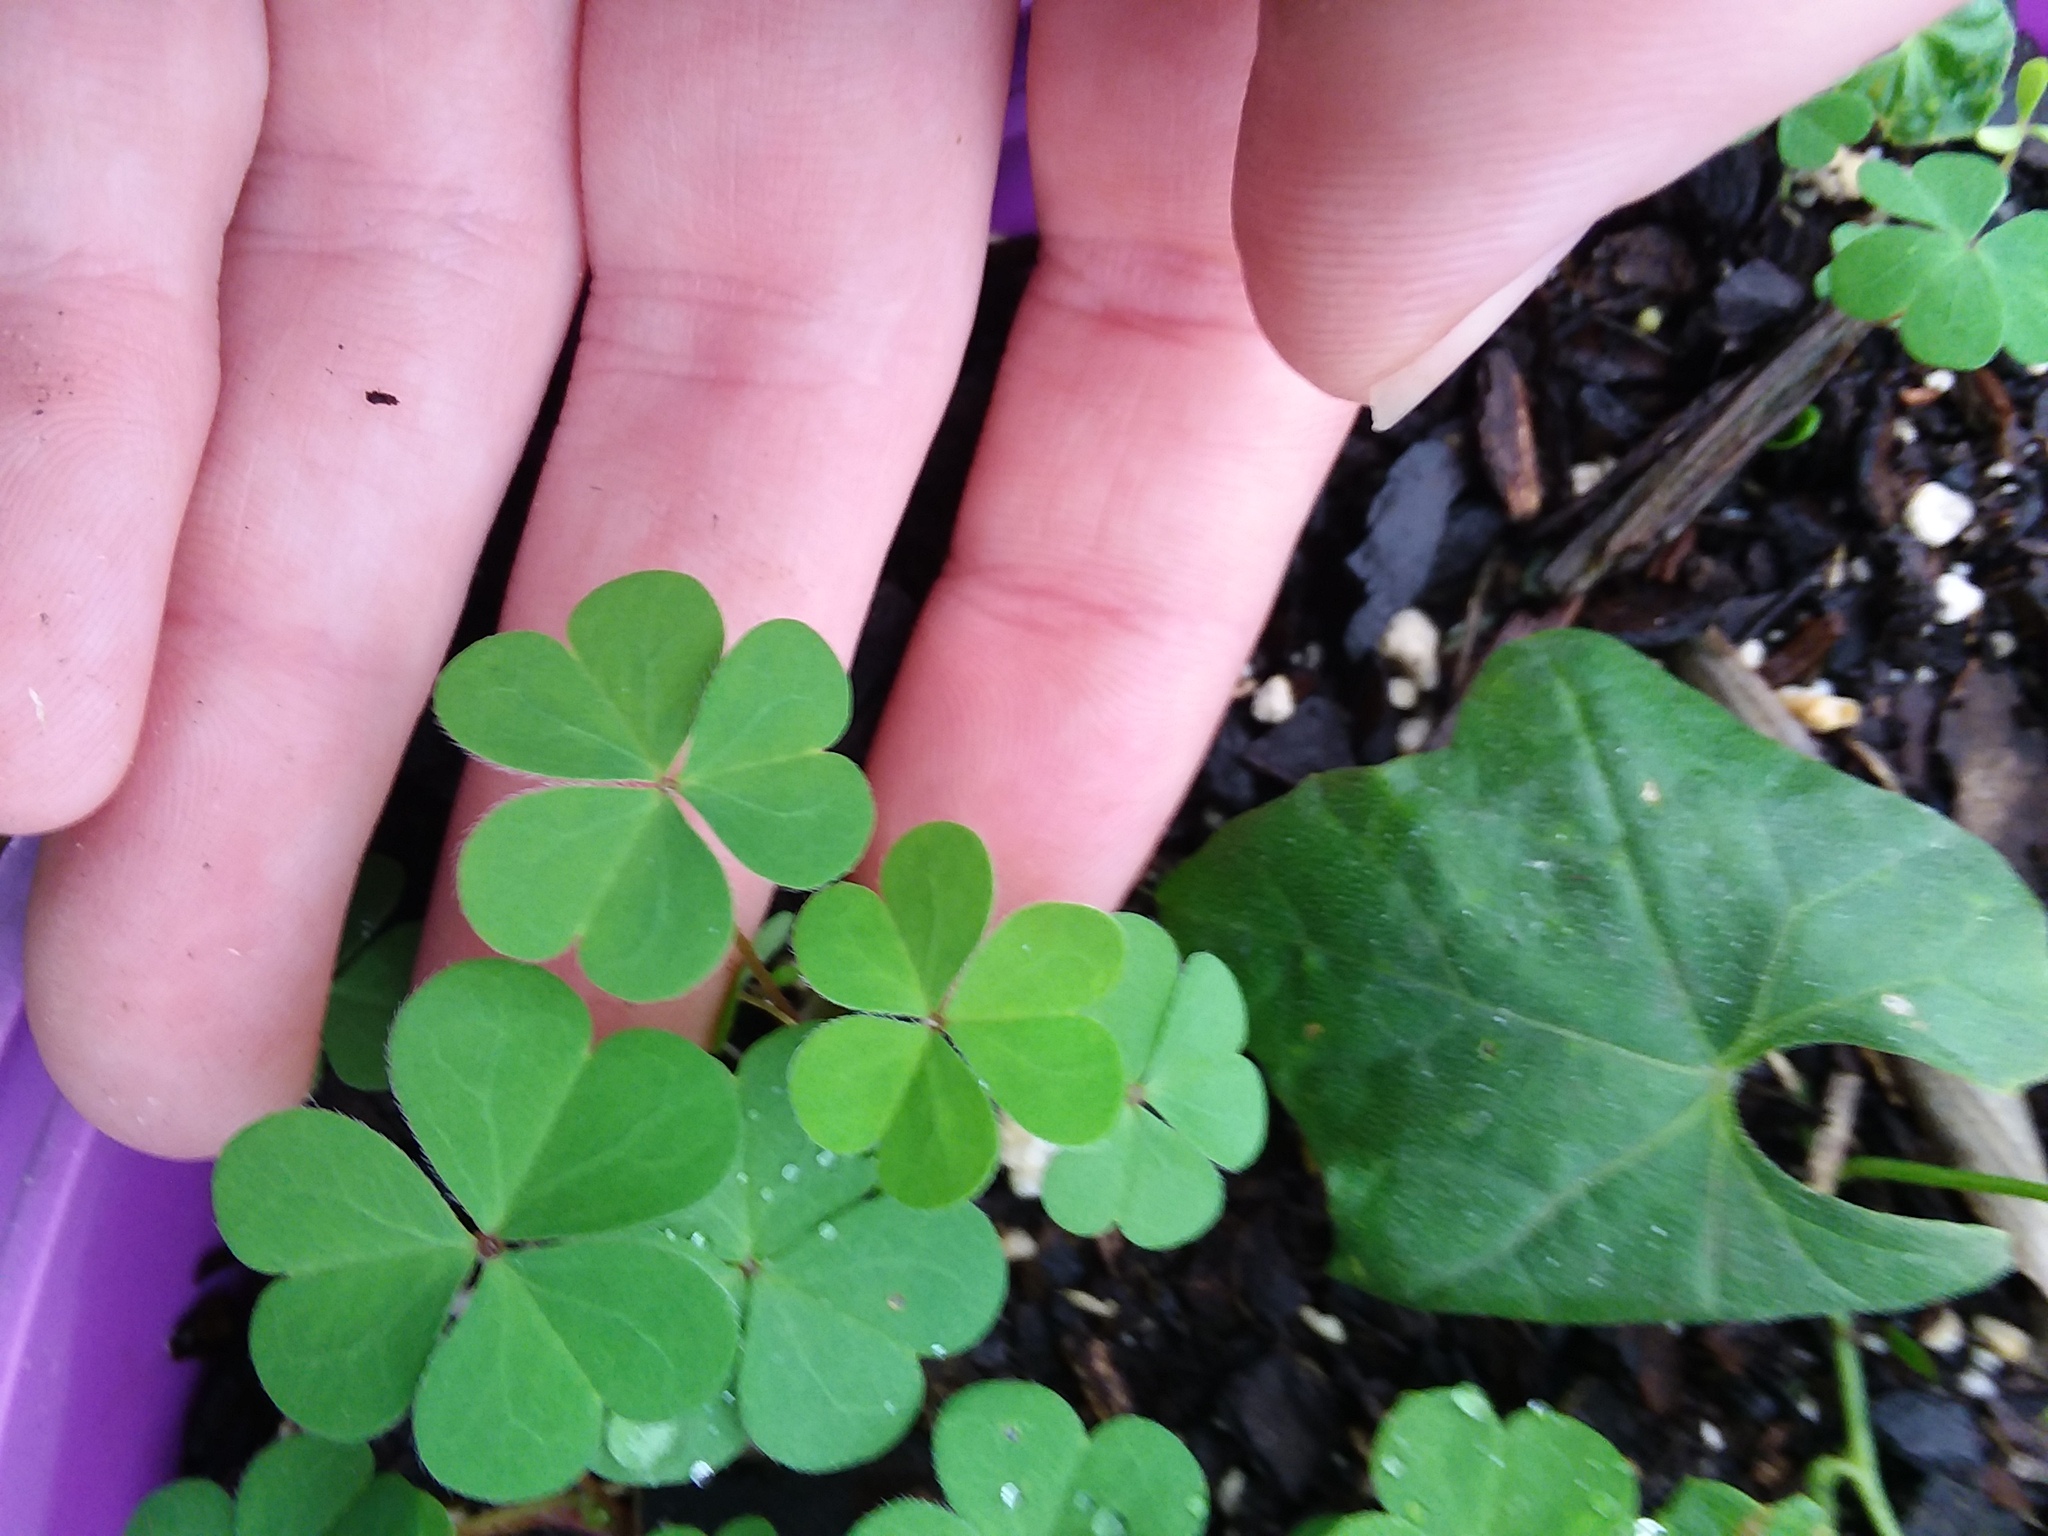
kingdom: Plantae
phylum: Tracheophyta
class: Magnoliopsida
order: Oxalidales
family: Oxalidaceae
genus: Oxalis
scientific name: Oxalis corniculata
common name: Procumbent yellow-sorrel
